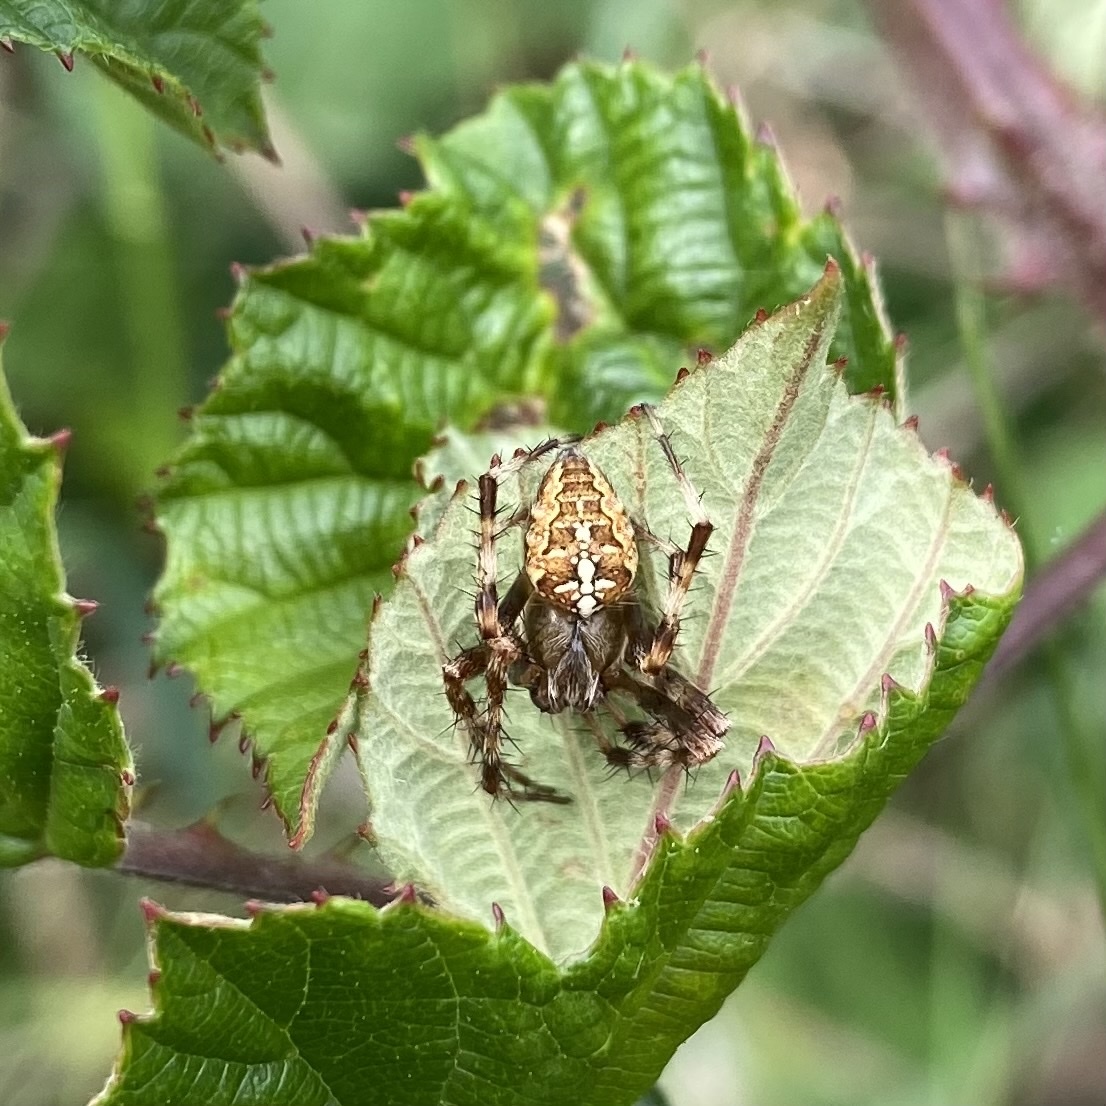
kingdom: Animalia
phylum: Arthropoda
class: Arachnida
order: Araneae
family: Araneidae
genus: Araneus
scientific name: Araneus diadematus
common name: Cross orbweaver
